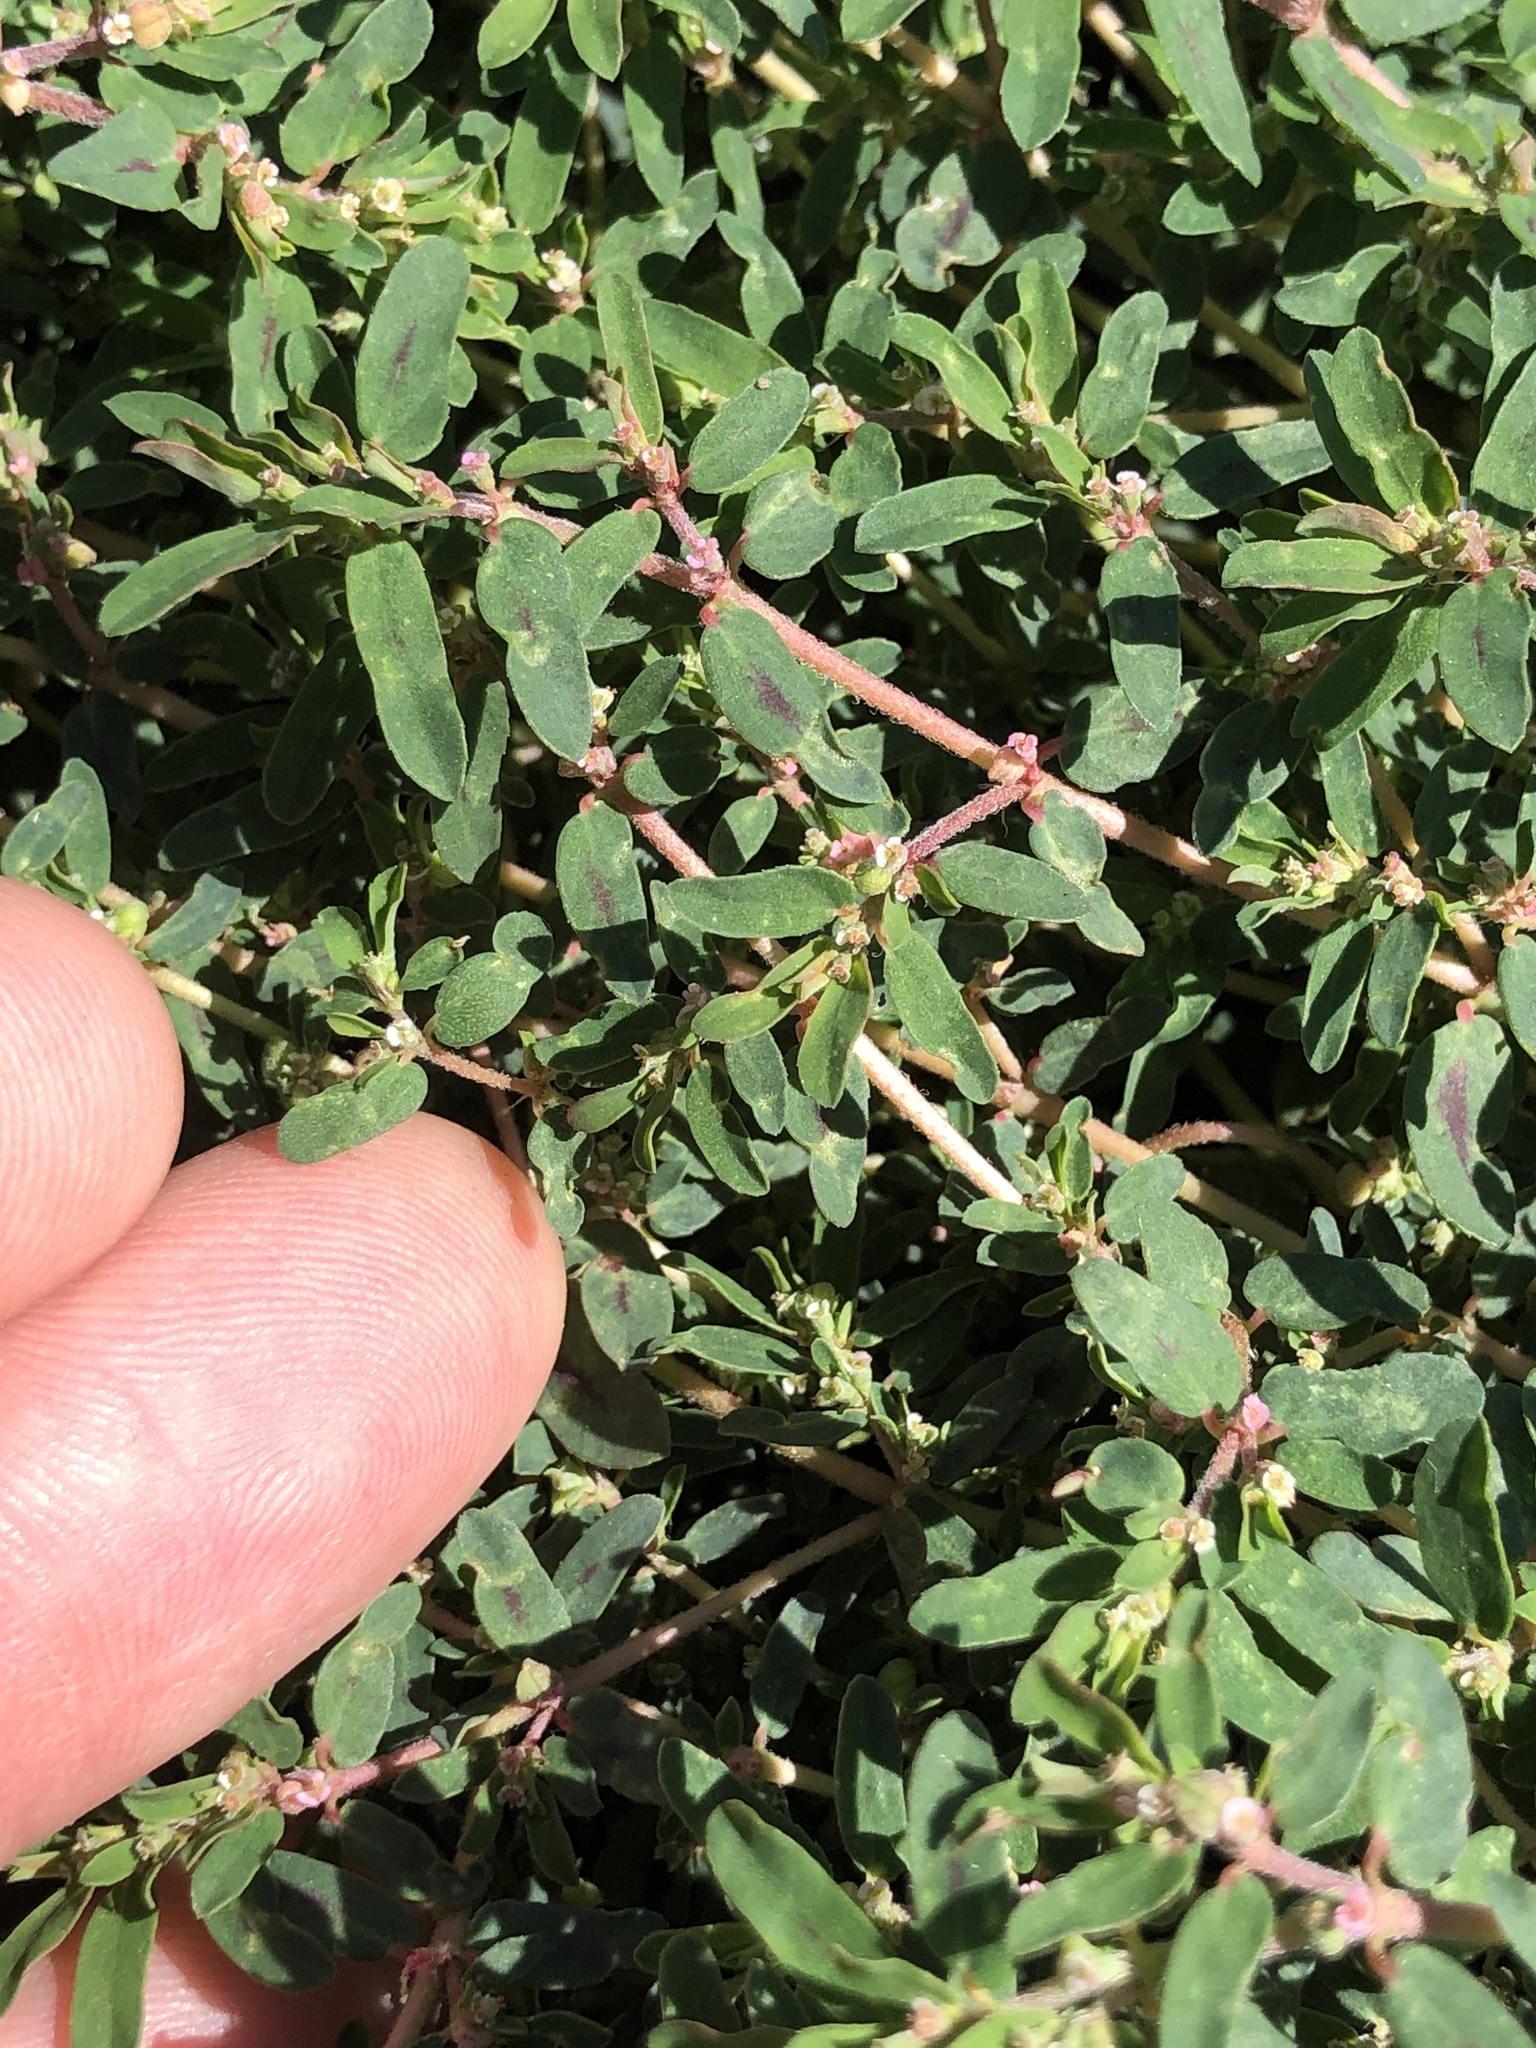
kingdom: Plantae
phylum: Tracheophyta
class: Magnoliopsida
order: Malpighiales
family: Euphorbiaceae
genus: Euphorbia
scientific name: Euphorbia maculata
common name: Spotted spurge
